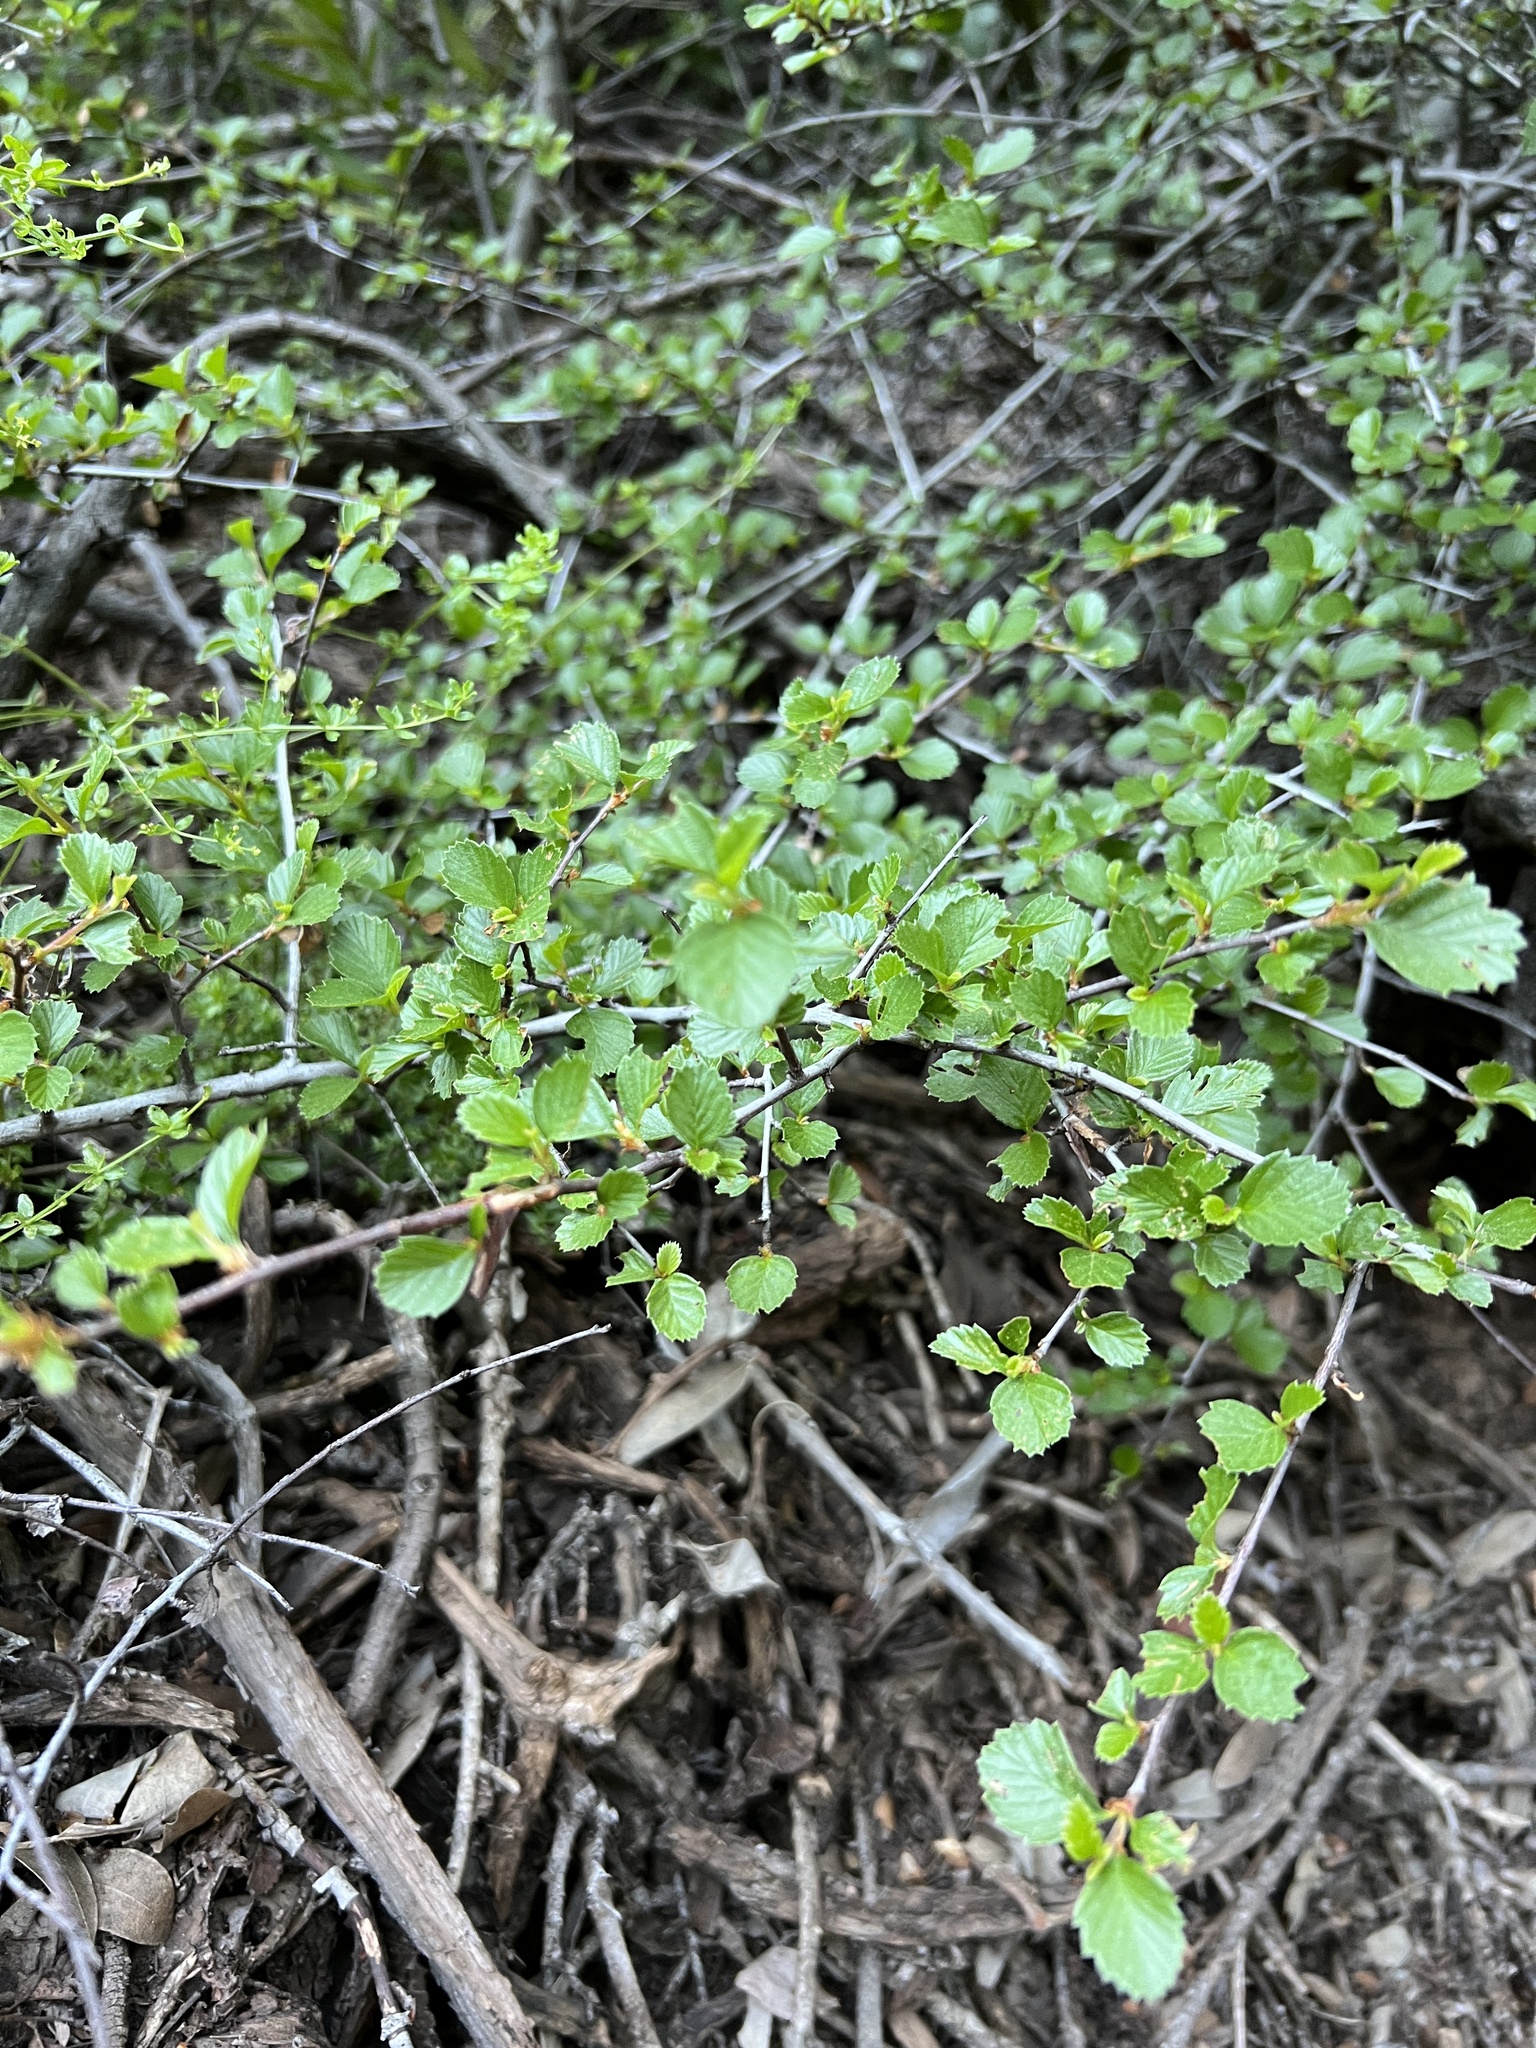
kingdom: Plantae
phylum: Tracheophyta
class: Magnoliopsida
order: Rosales
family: Rosaceae
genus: Cercocarpus
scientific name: Cercocarpus betuloides
